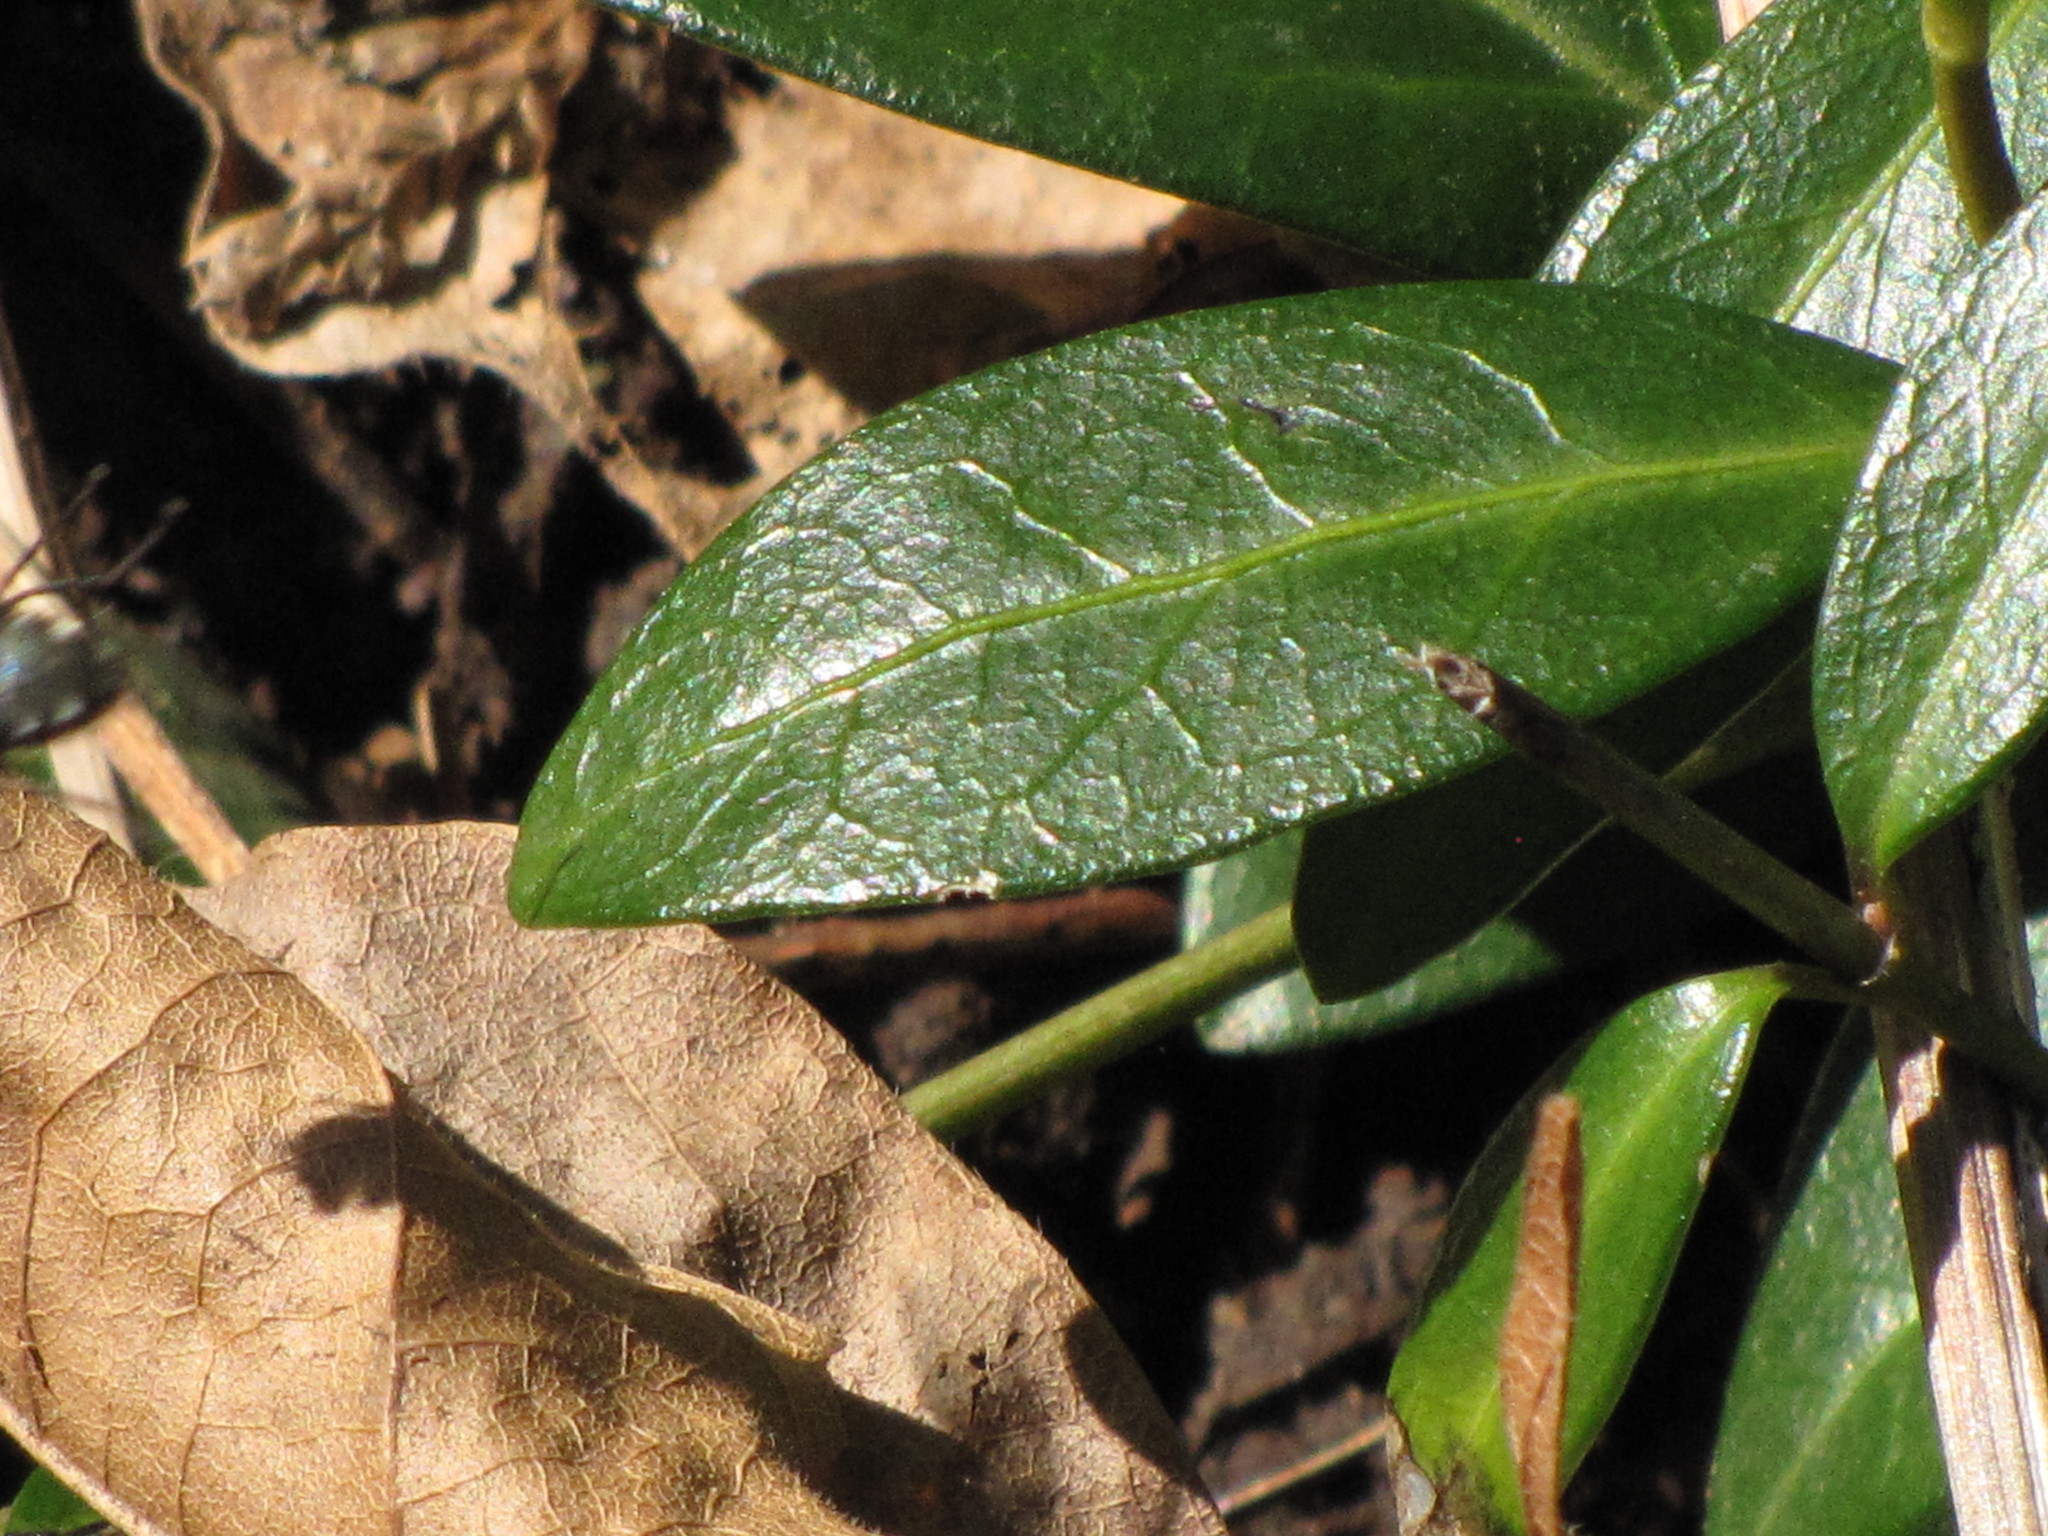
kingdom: Plantae
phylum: Tracheophyta
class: Magnoliopsida
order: Gentianales
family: Apocynaceae
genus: Vinca
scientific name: Vinca minor
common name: Lesser periwinkle
